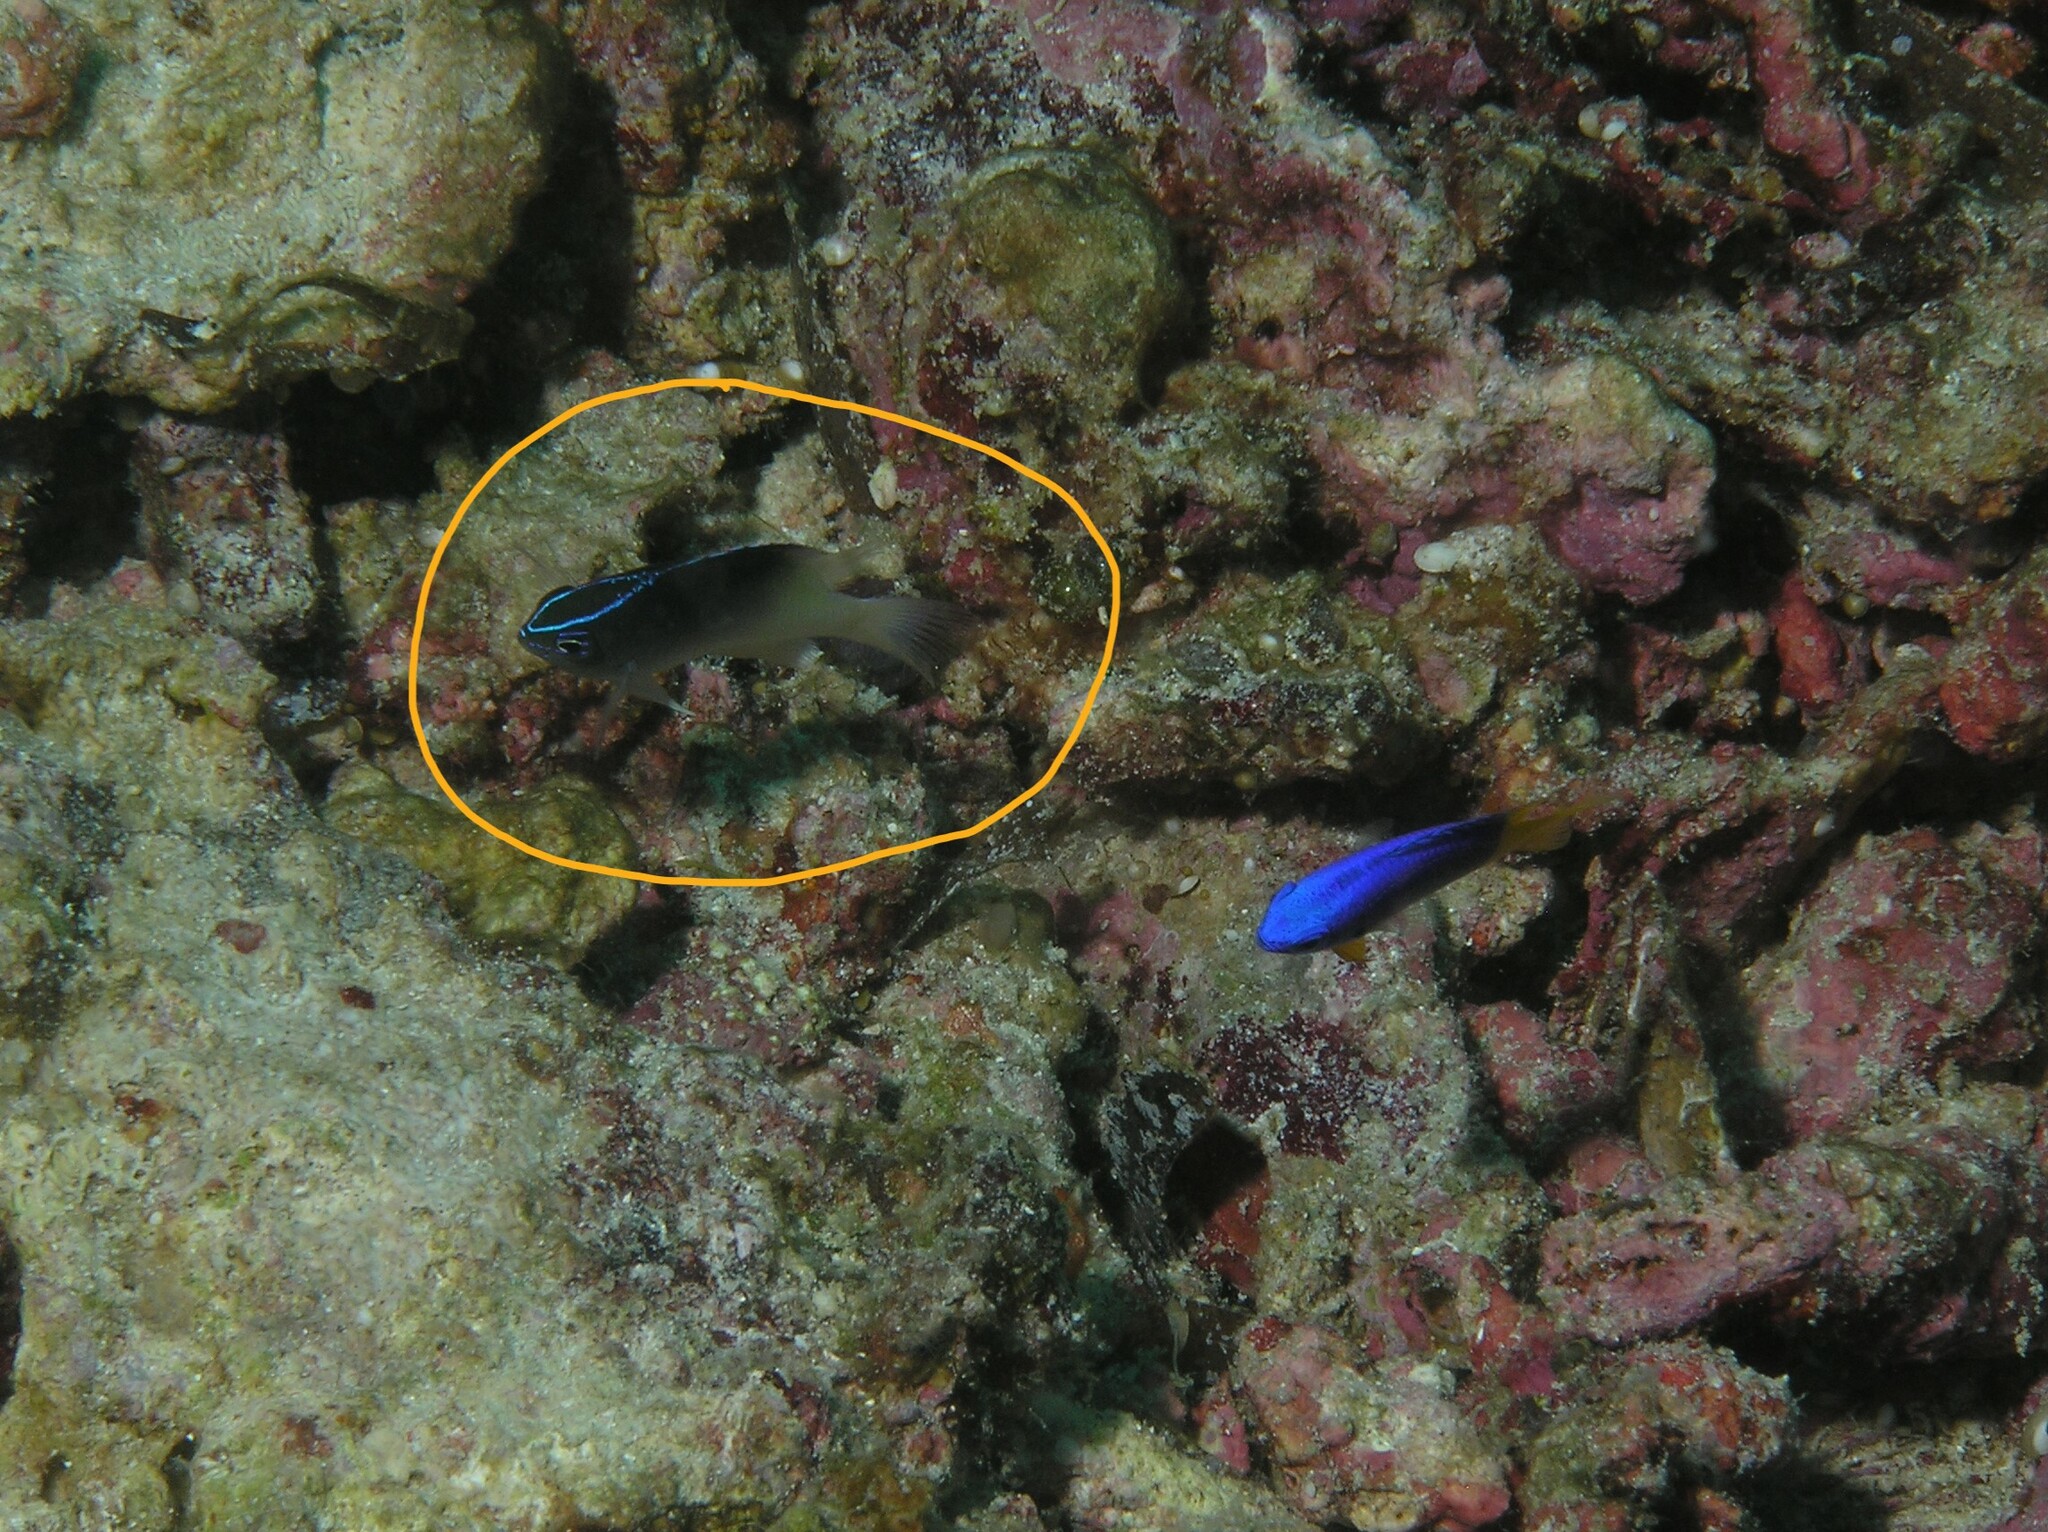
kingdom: Animalia
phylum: Chordata
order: Perciformes
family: Pomacentridae
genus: Chrysiptera
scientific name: Chrysiptera rollandi
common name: Rolland's demoiselle
